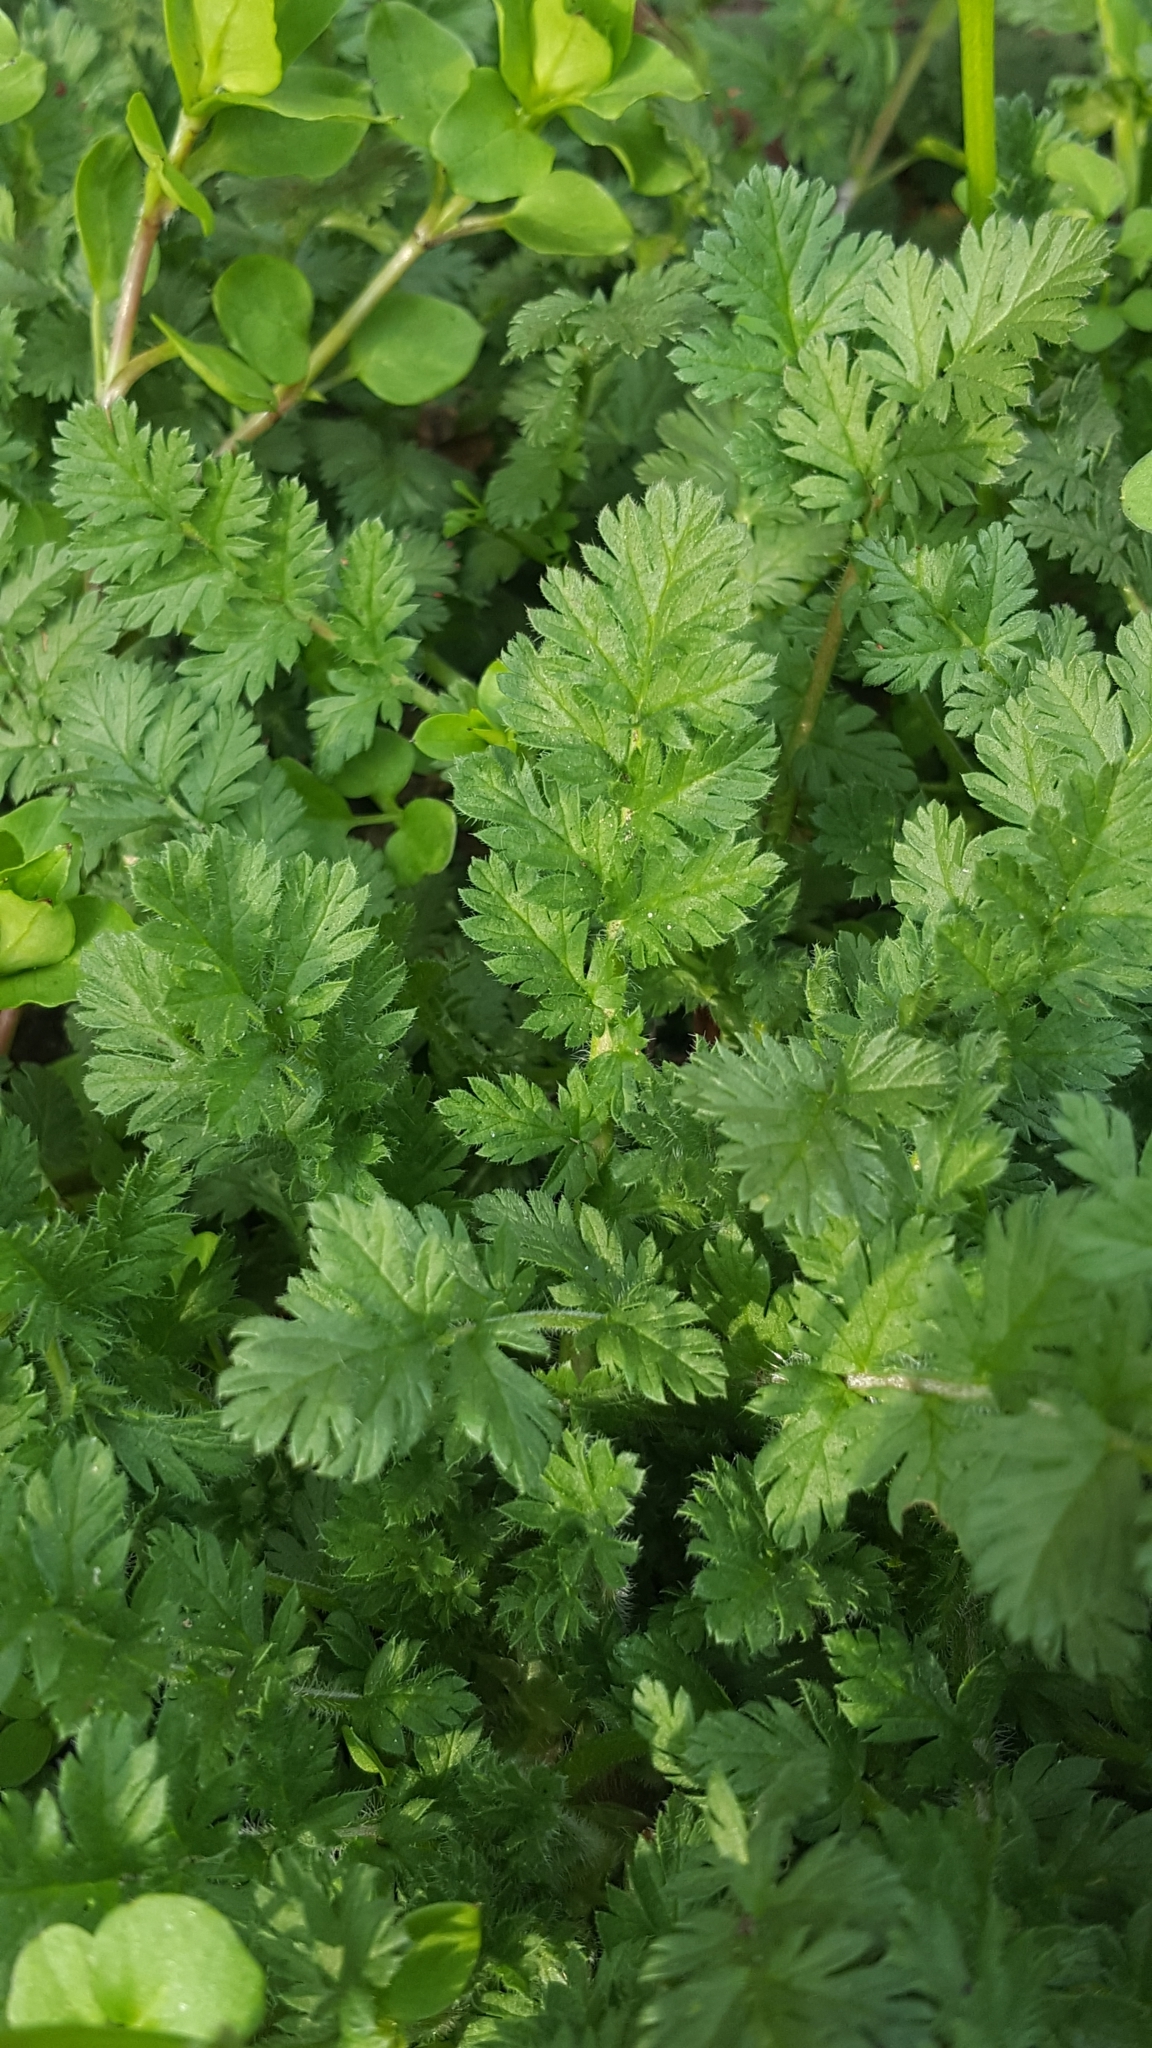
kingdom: Plantae
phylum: Tracheophyta
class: Magnoliopsida
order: Geraniales
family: Geraniaceae
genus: Erodium
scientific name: Erodium cicutarium
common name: Common stork's-bill
